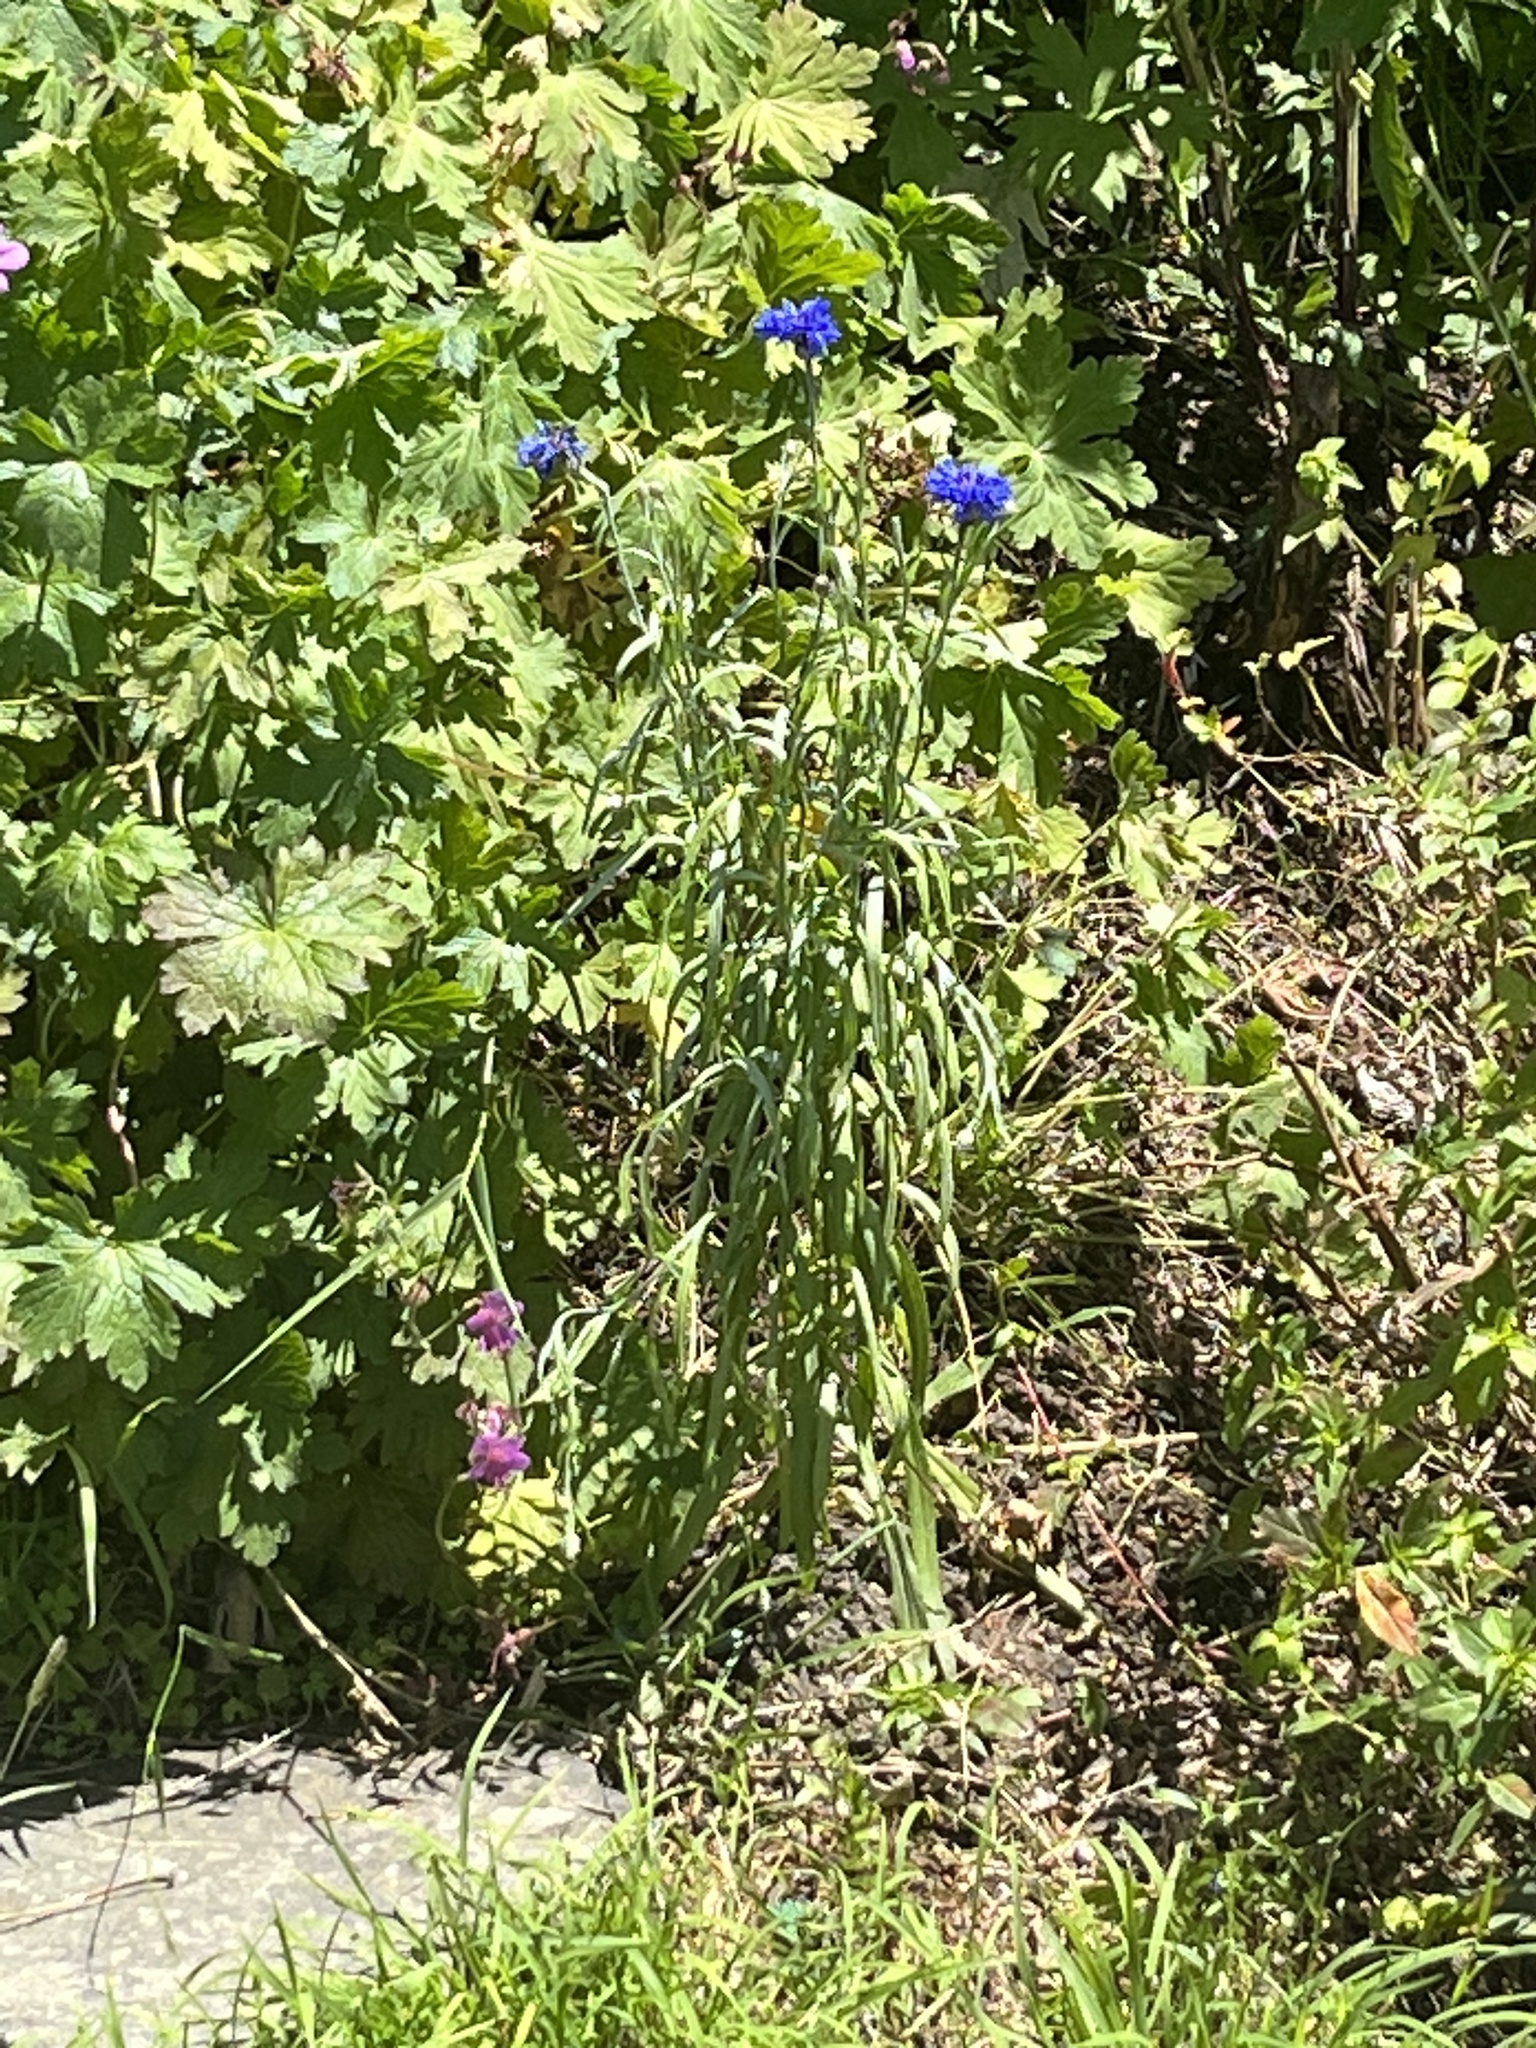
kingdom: Plantae
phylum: Tracheophyta
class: Magnoliopsida
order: Asterales
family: Asteraceae
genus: Centaurea
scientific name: Centaurea cyanus
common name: Cornflower
